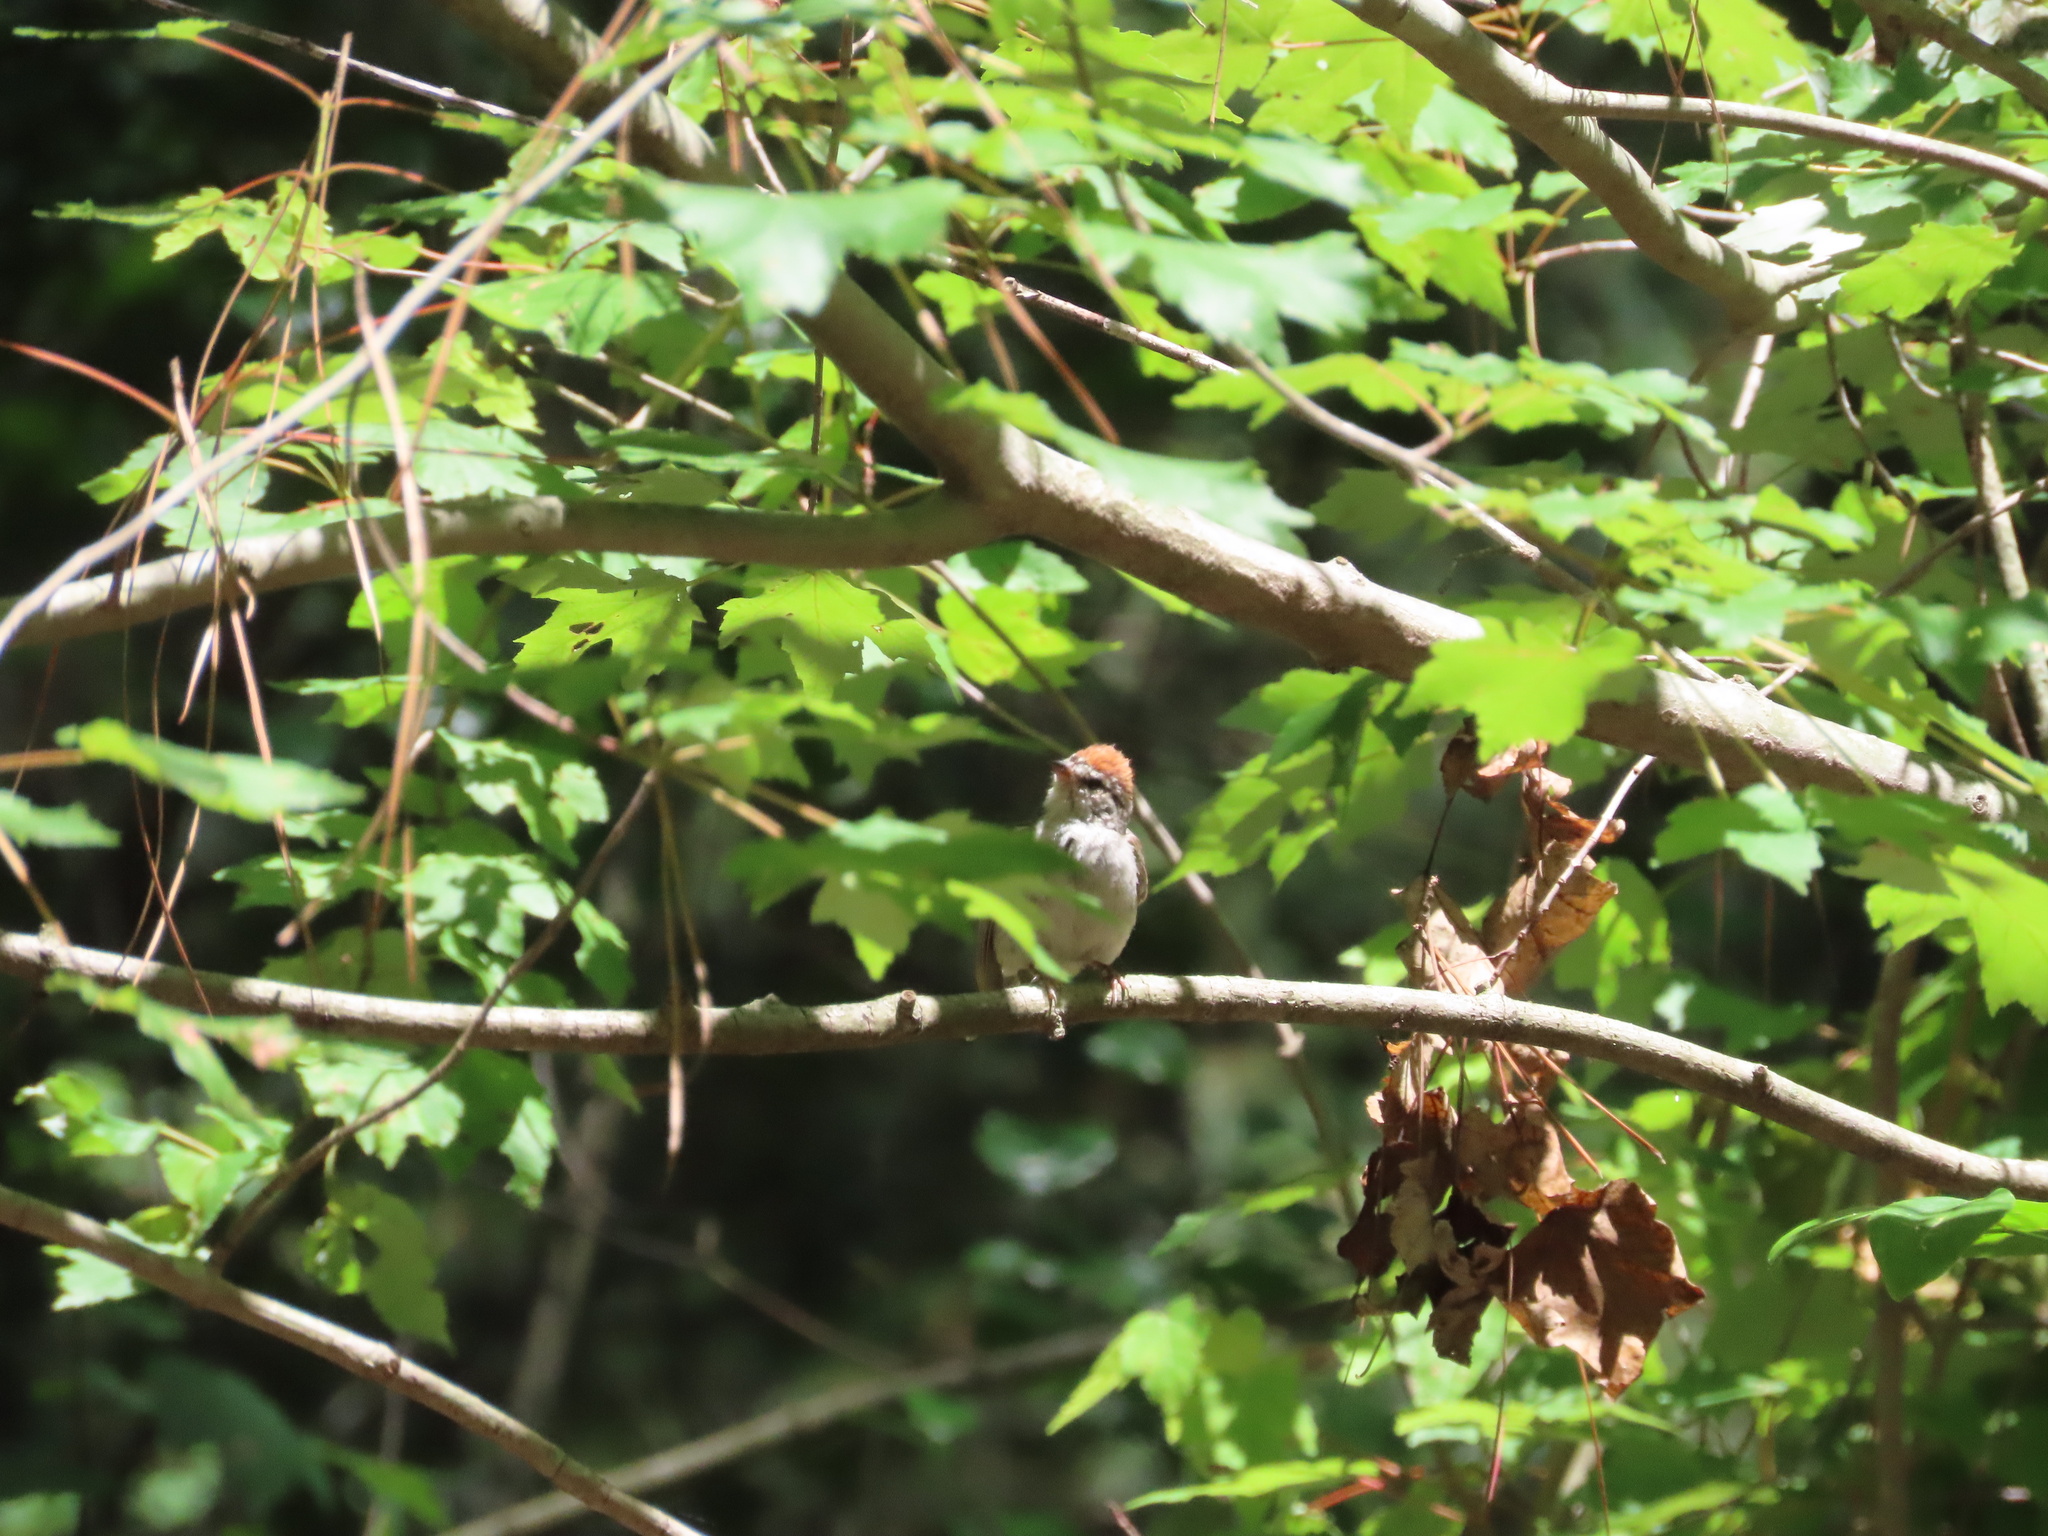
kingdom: Animalia
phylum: Chordata
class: Aves
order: Passeriformes
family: Passerellidae
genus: Spizella
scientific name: Spizella passerina
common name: Chipping sparrow
